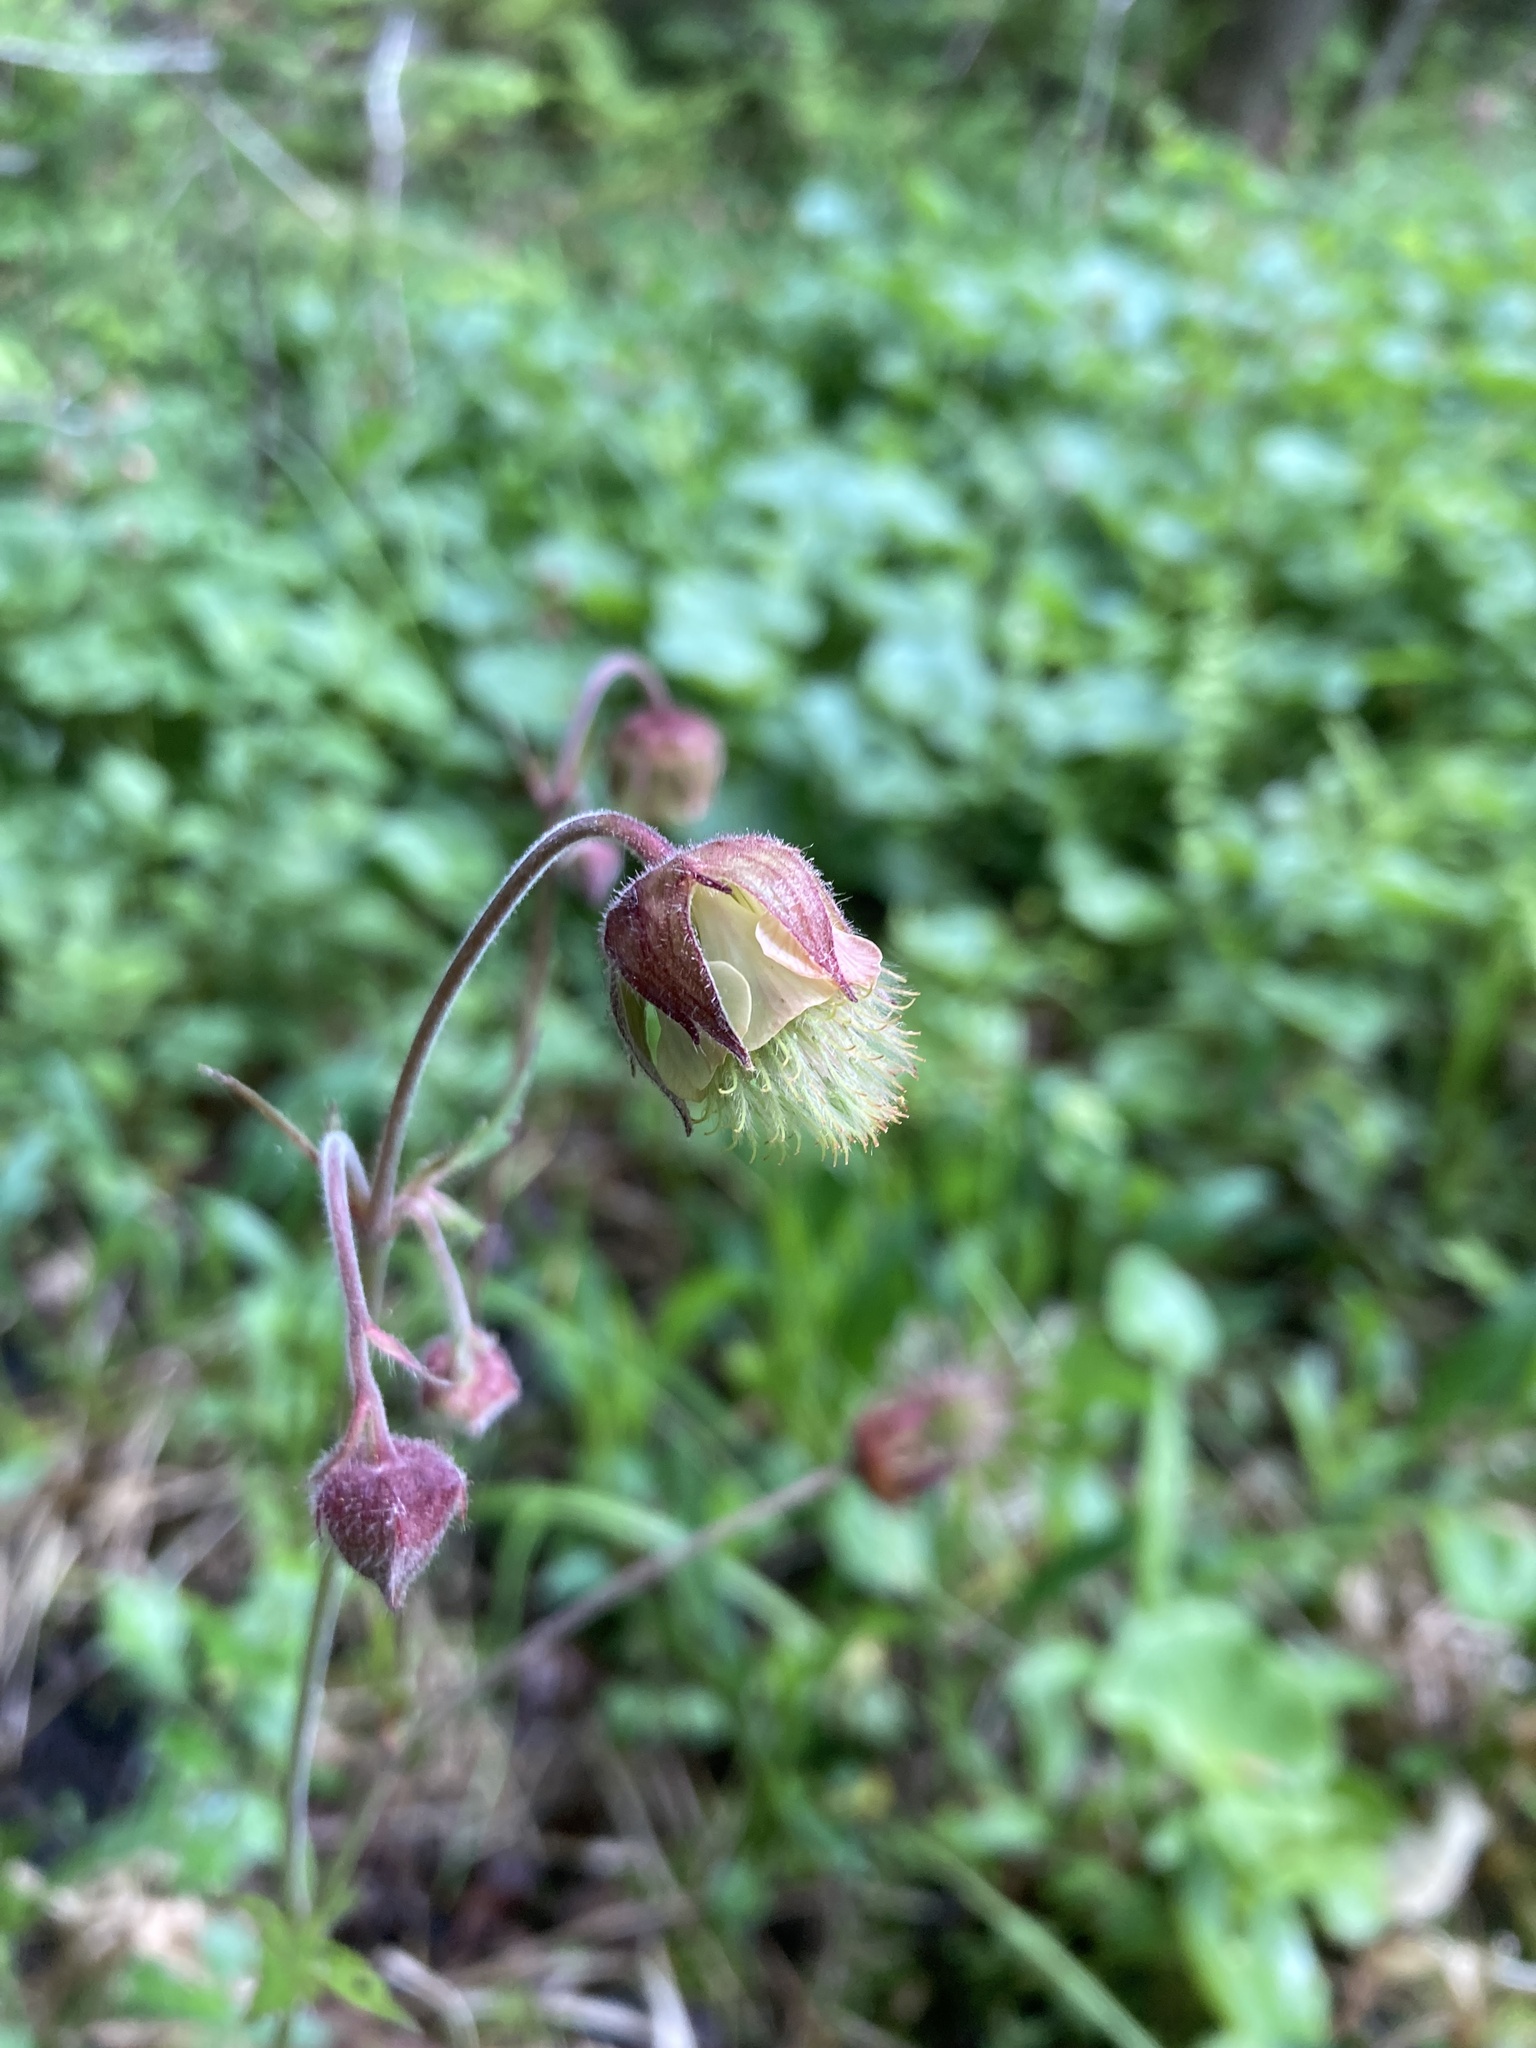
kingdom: Plantae
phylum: Tracheophyta
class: Magnoliopsida
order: Rosales
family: Rosaceae
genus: Geum
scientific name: Geum rivale
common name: Water avens
